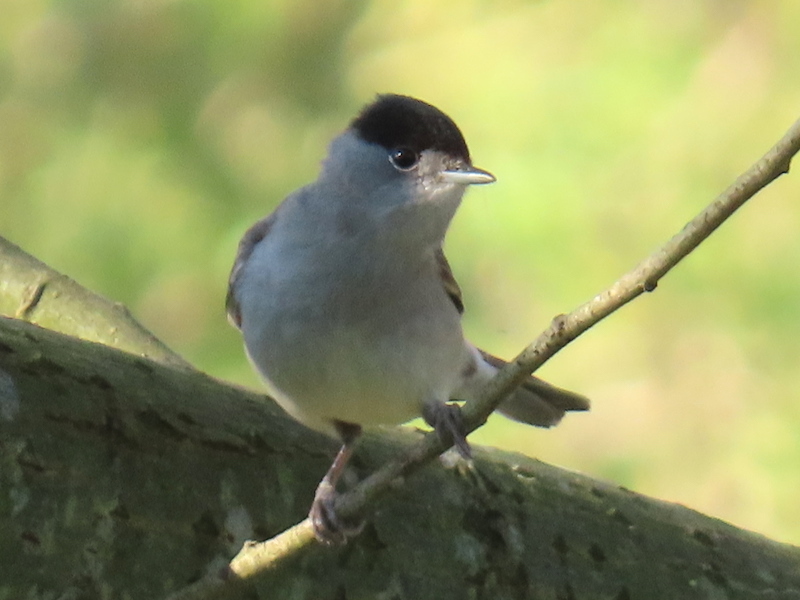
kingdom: Animalia
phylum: Chordata
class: Aves
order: Passeriformes
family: Sylviidae
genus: Sylvia
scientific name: Sylvia atricapilla
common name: Eurasian blackcap
